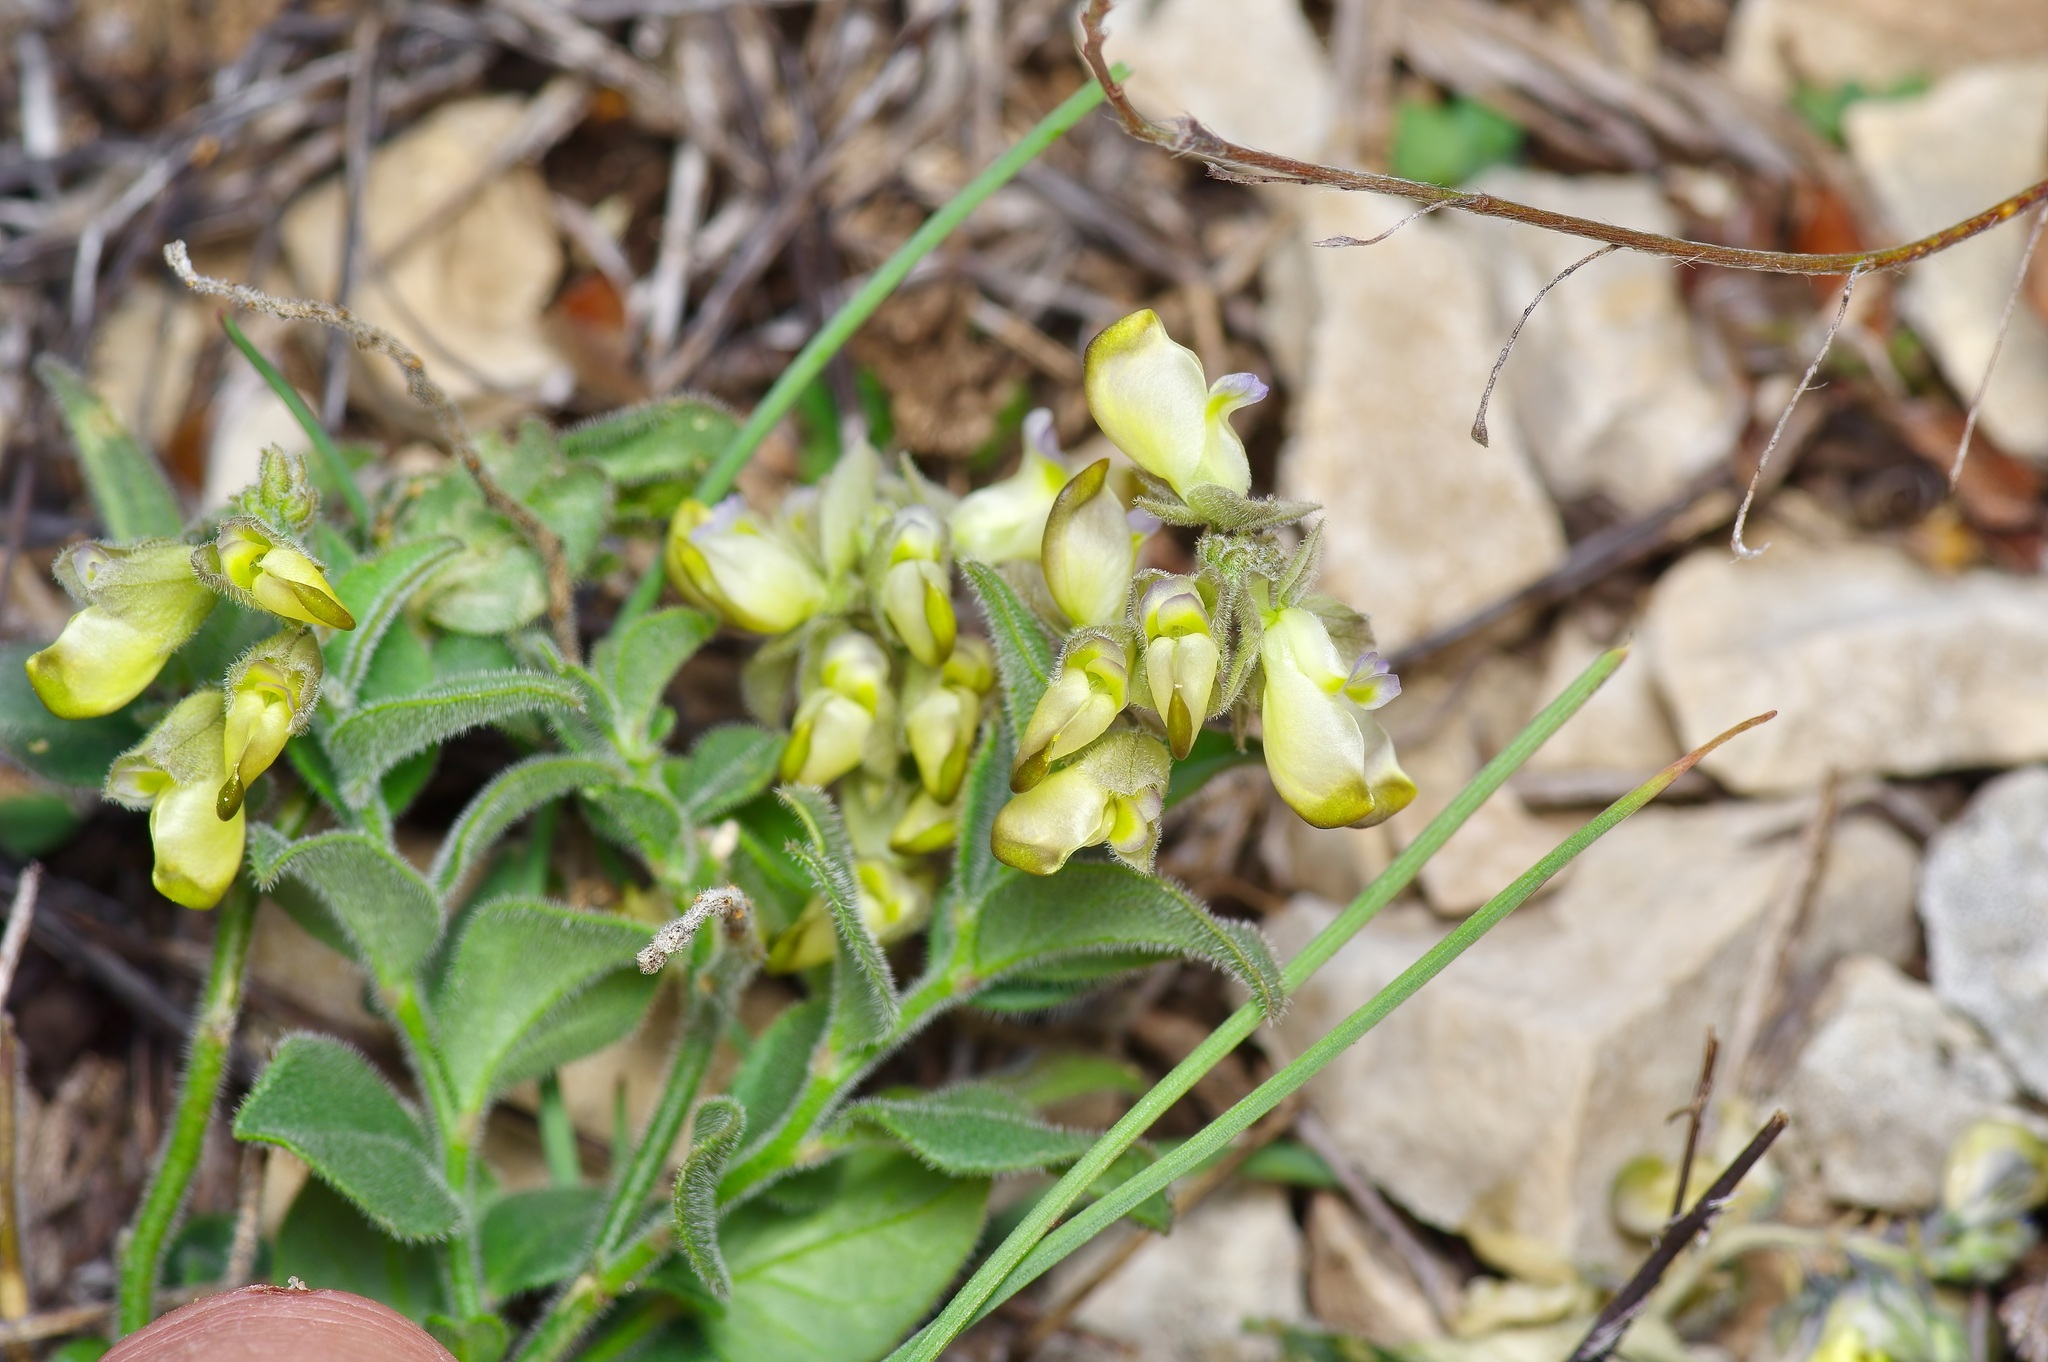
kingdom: Plantae
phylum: Tracheophyta
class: Magnoliopsida
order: Fabales
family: Polygalaceae
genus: Hebecarpa
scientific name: Hebecarpa ovatifolia
